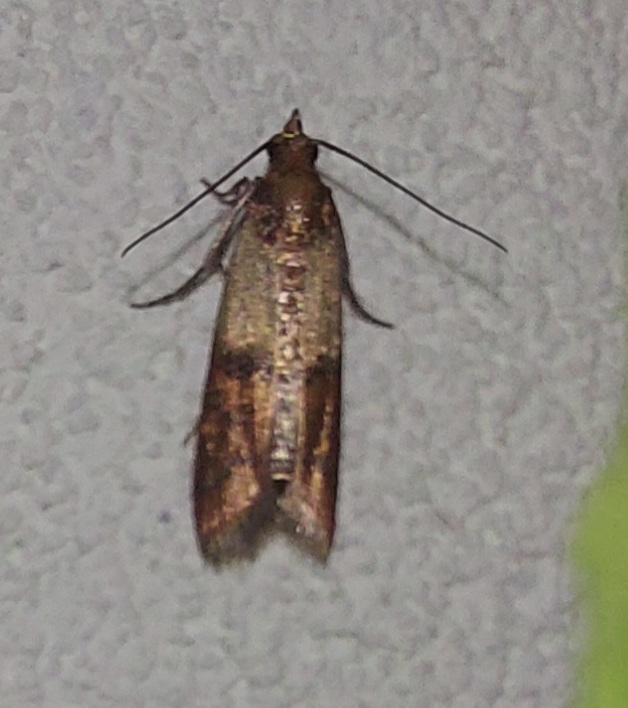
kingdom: Animalia
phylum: Arthropoda
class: Insecta
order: Lepidoptera
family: Pyralidae
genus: Plodia
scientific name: Plodia interpunctella
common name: Indian meal moth
